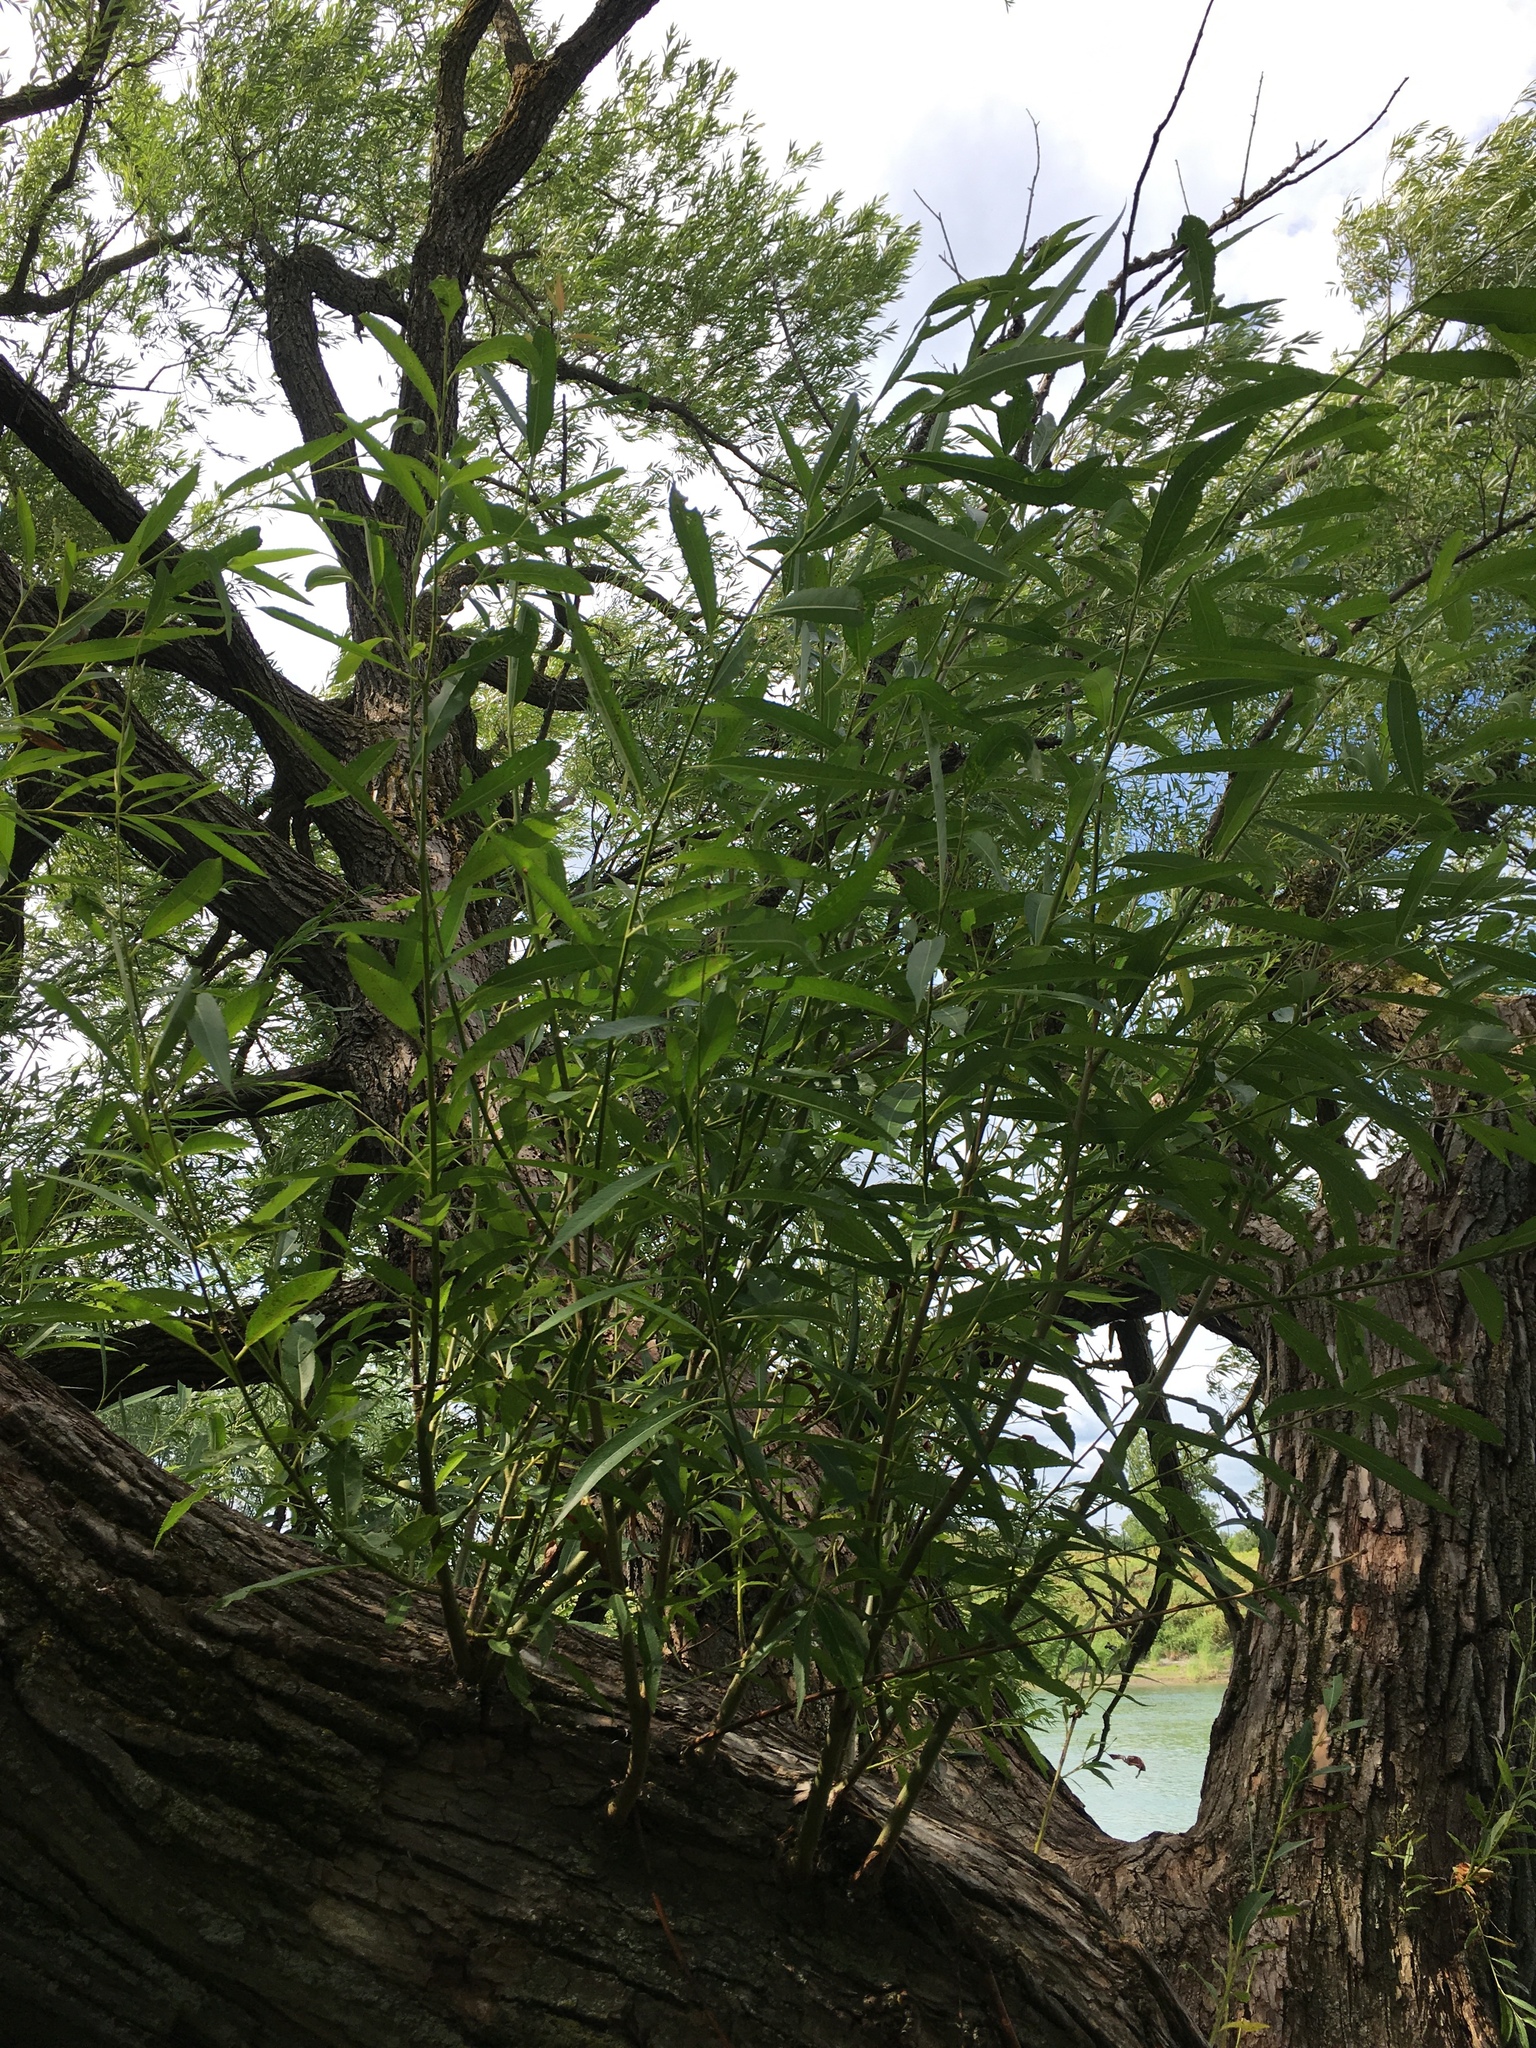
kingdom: Plantae
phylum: Tracheophyta
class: Magnoliopsida
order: Malpighiales
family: Salicaceae
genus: Salix
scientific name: Salix alba
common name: White willow
